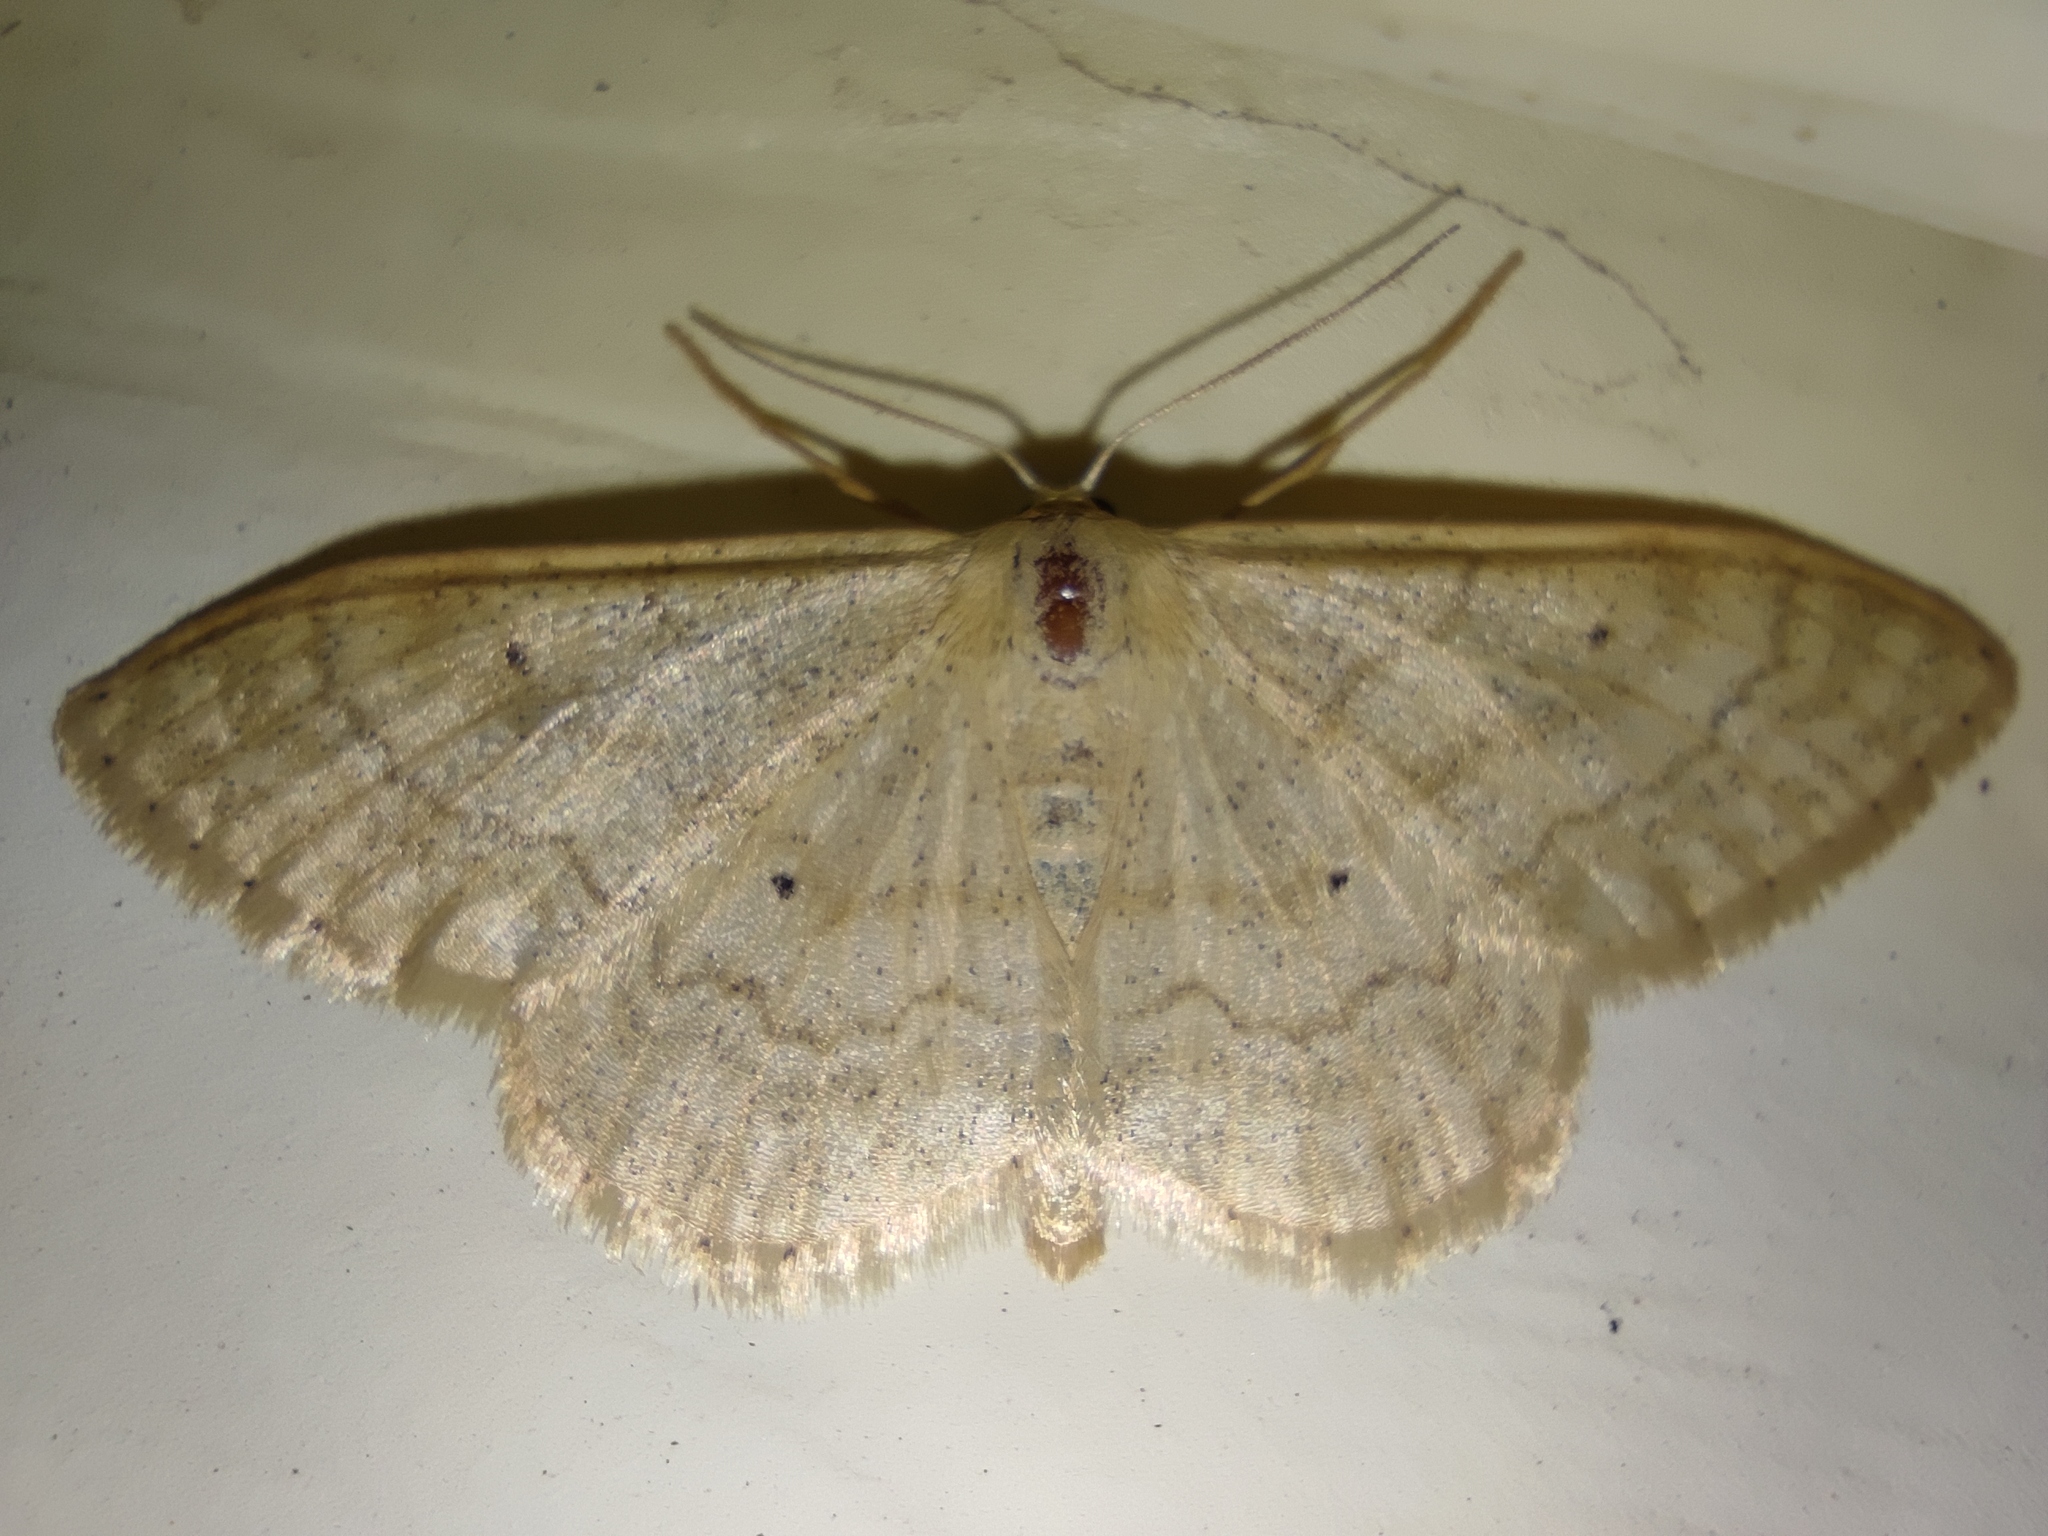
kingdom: Animalia
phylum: Arthropoda
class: Insecta
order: Lepidoptera
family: Geometridae
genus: Idaea
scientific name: Idaea maritimaria
